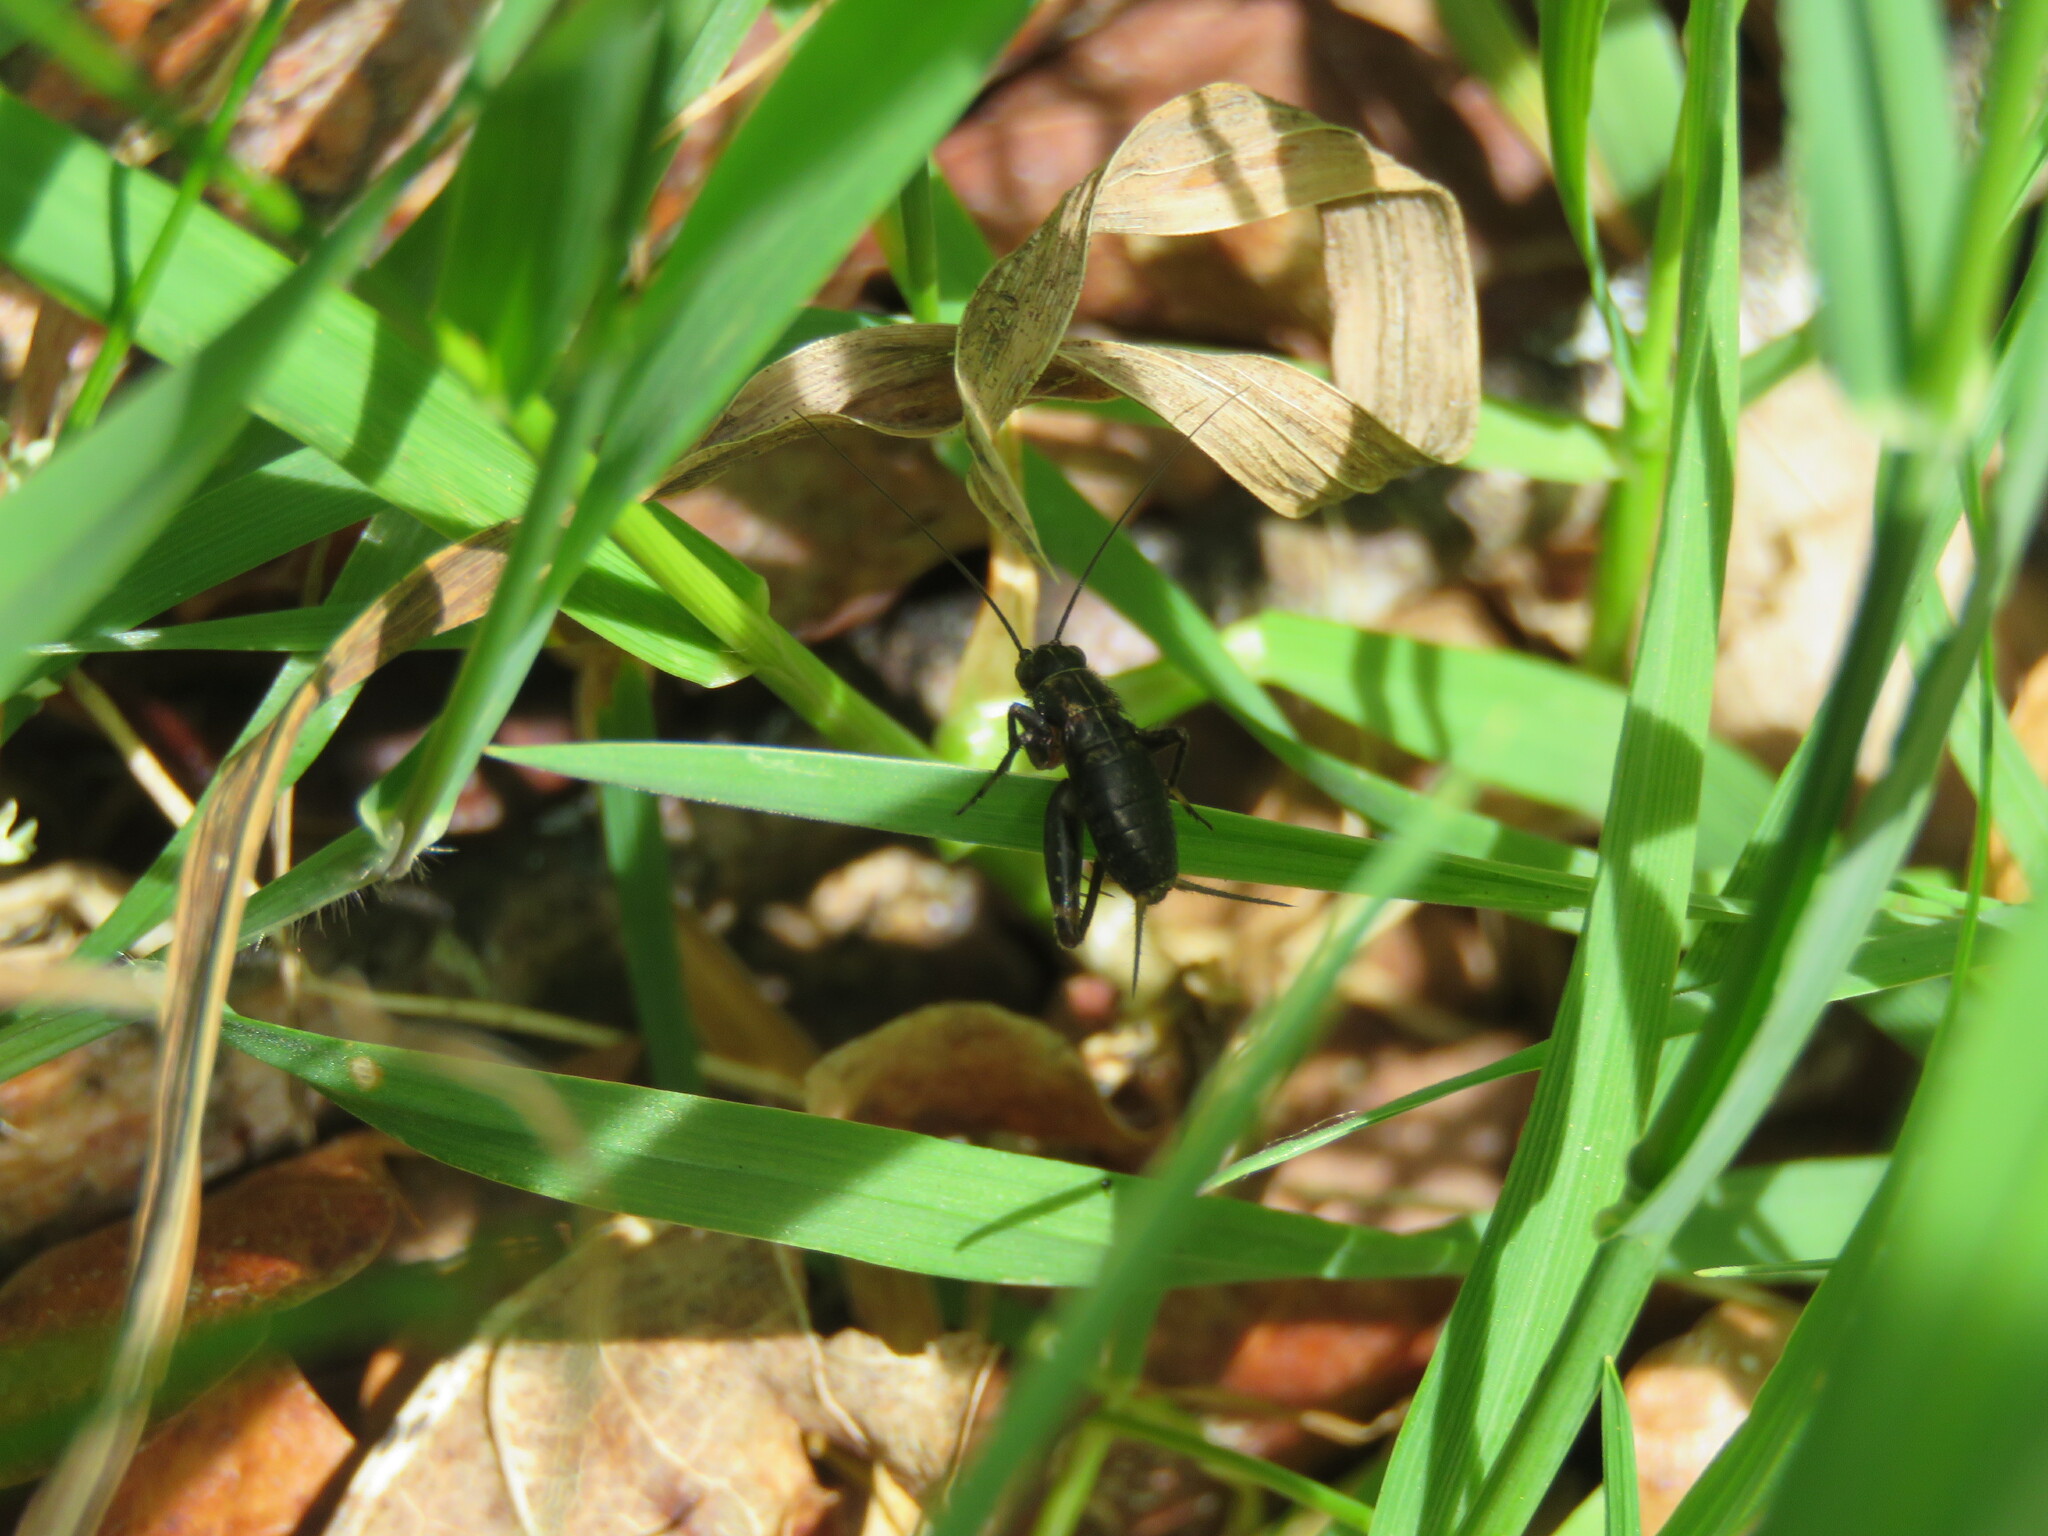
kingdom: Animalia
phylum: Arthropoda
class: Insecta
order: Orthoptera
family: Trigonidiidae
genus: Nemobius
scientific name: Nemobius sylvestris
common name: Wood-cricket
